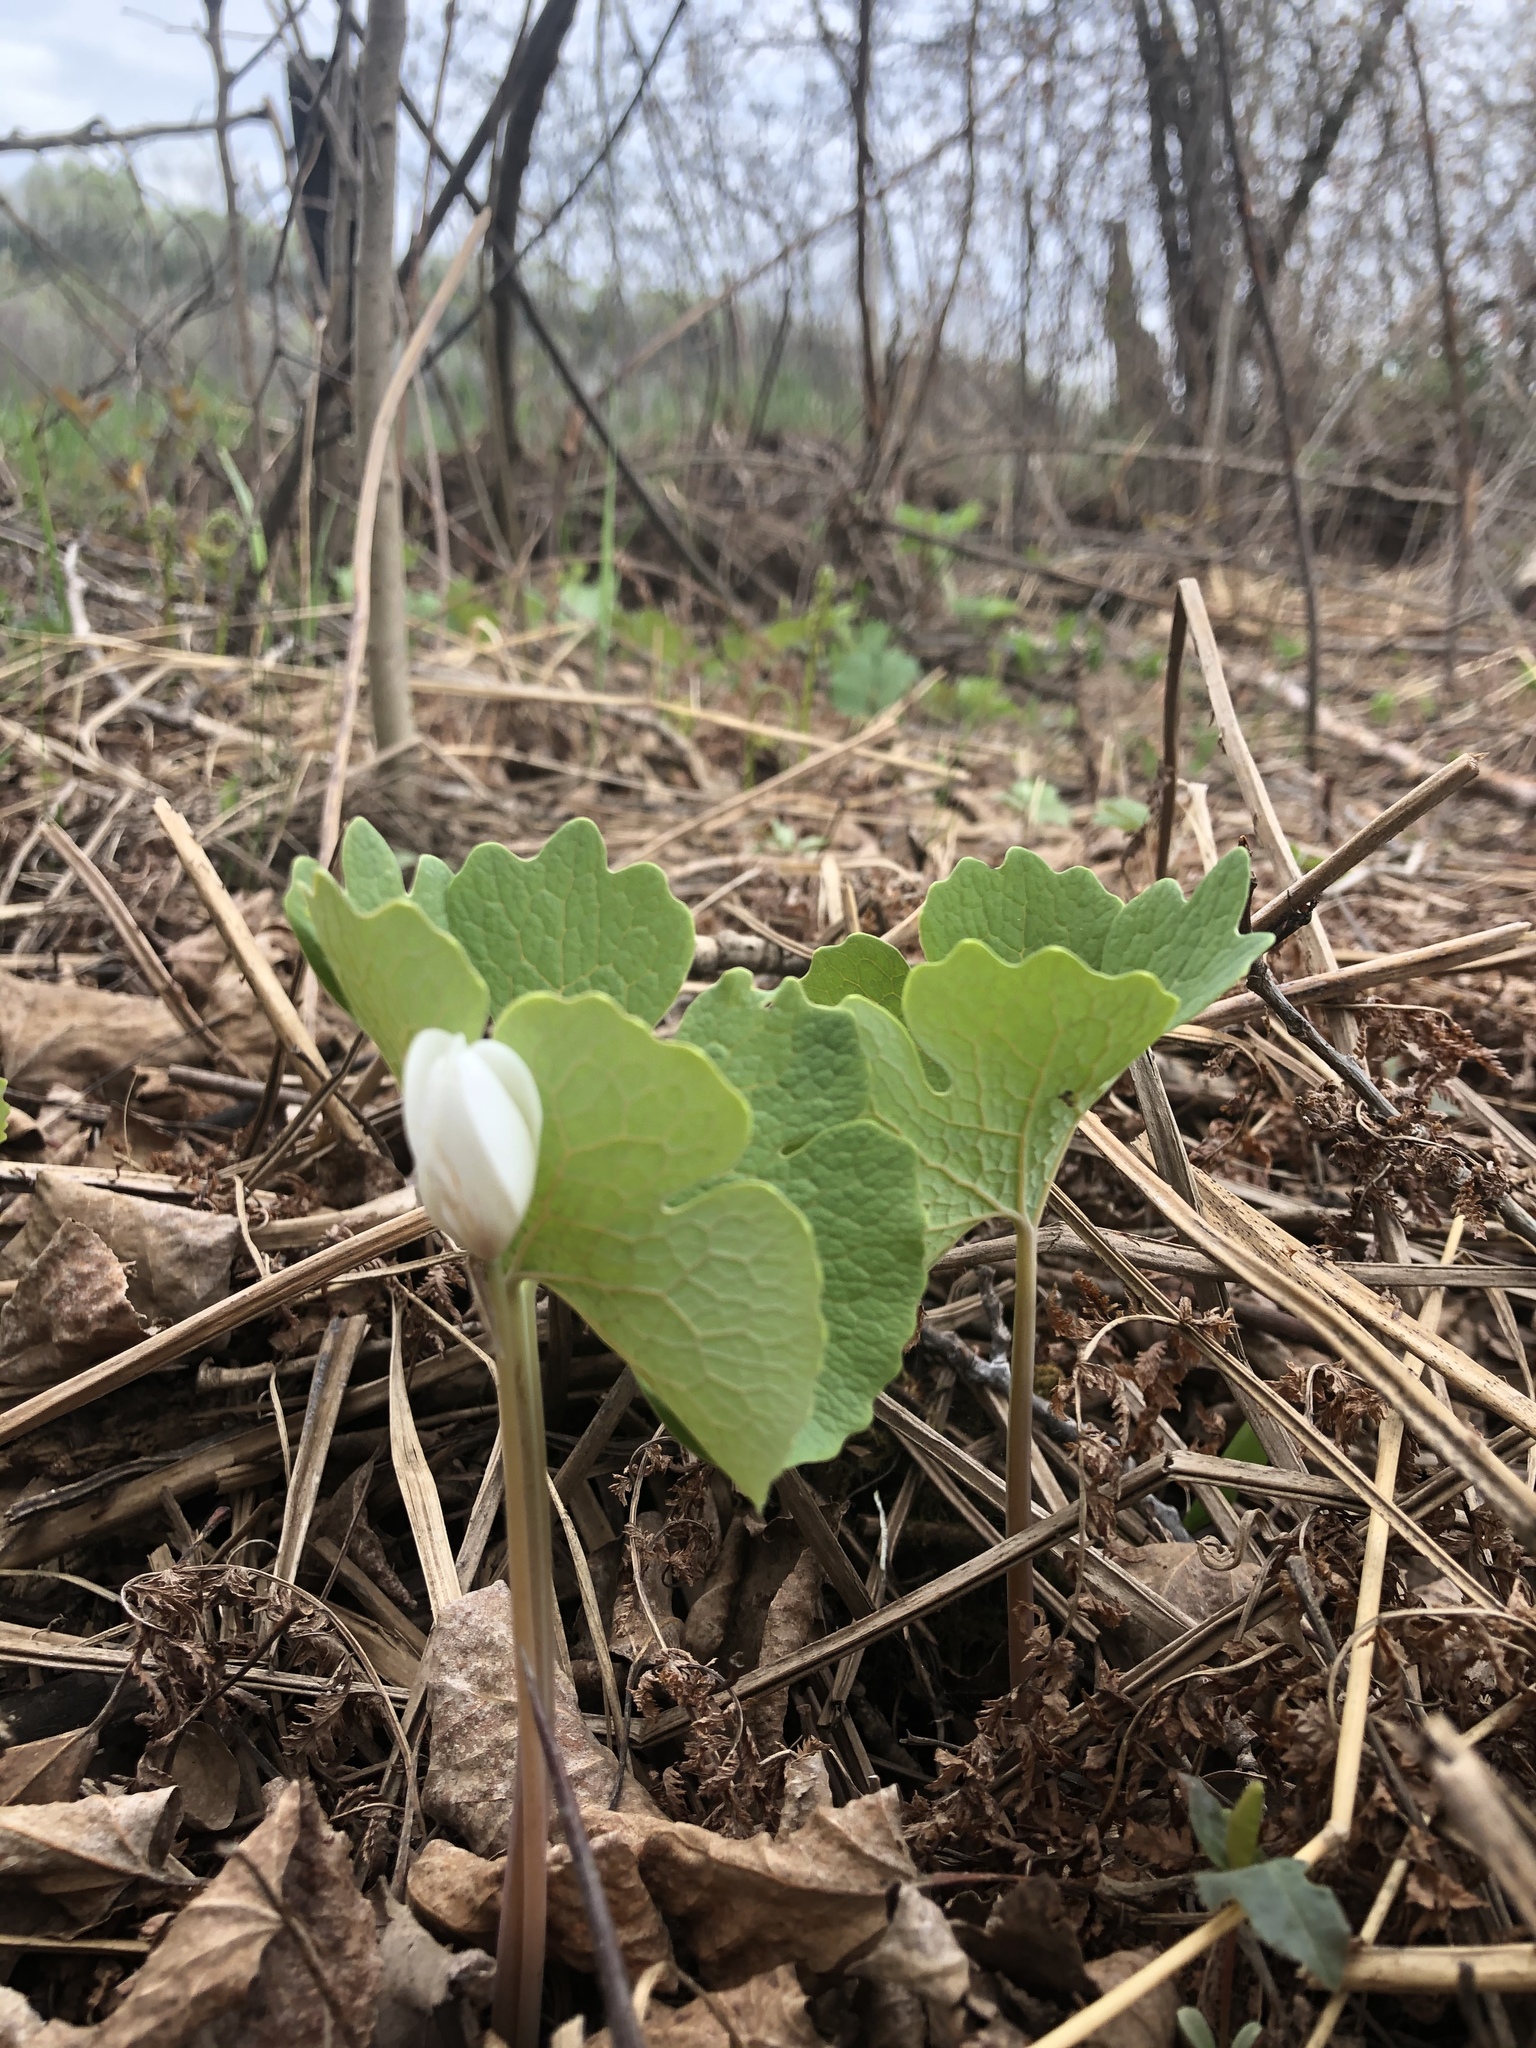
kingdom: Plantae
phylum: Tracheophyta
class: Magnoliopsida
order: Ranunculales
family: Papaveraceae
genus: Sanguinaria
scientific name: Sanguinaria canadensis
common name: Bloodroot
